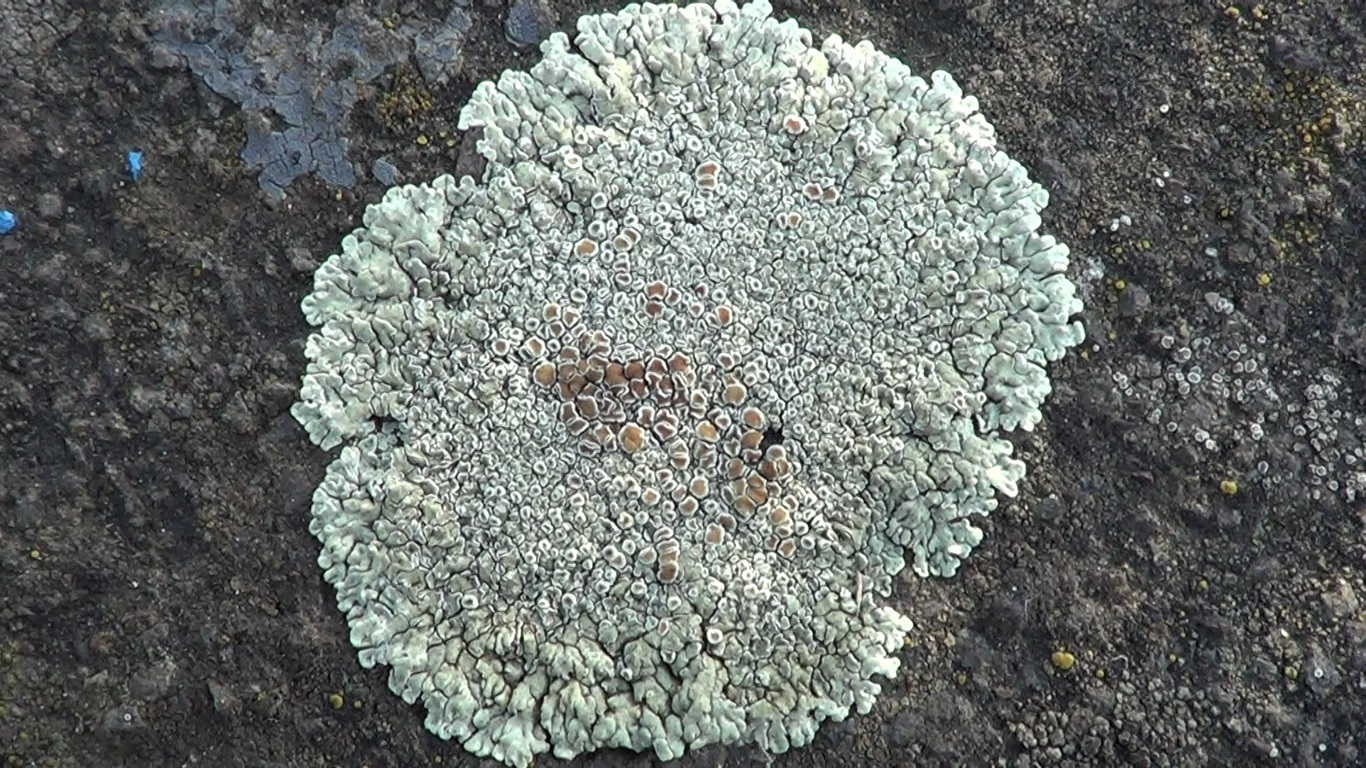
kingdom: Fungi
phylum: Ascomycota
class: Lecanoromycetes
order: Lecanorales
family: Lecanoraceae
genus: Protoparmeliopsis
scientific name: Protoparmeliopsis muralis
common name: Stonewall rim lichen
